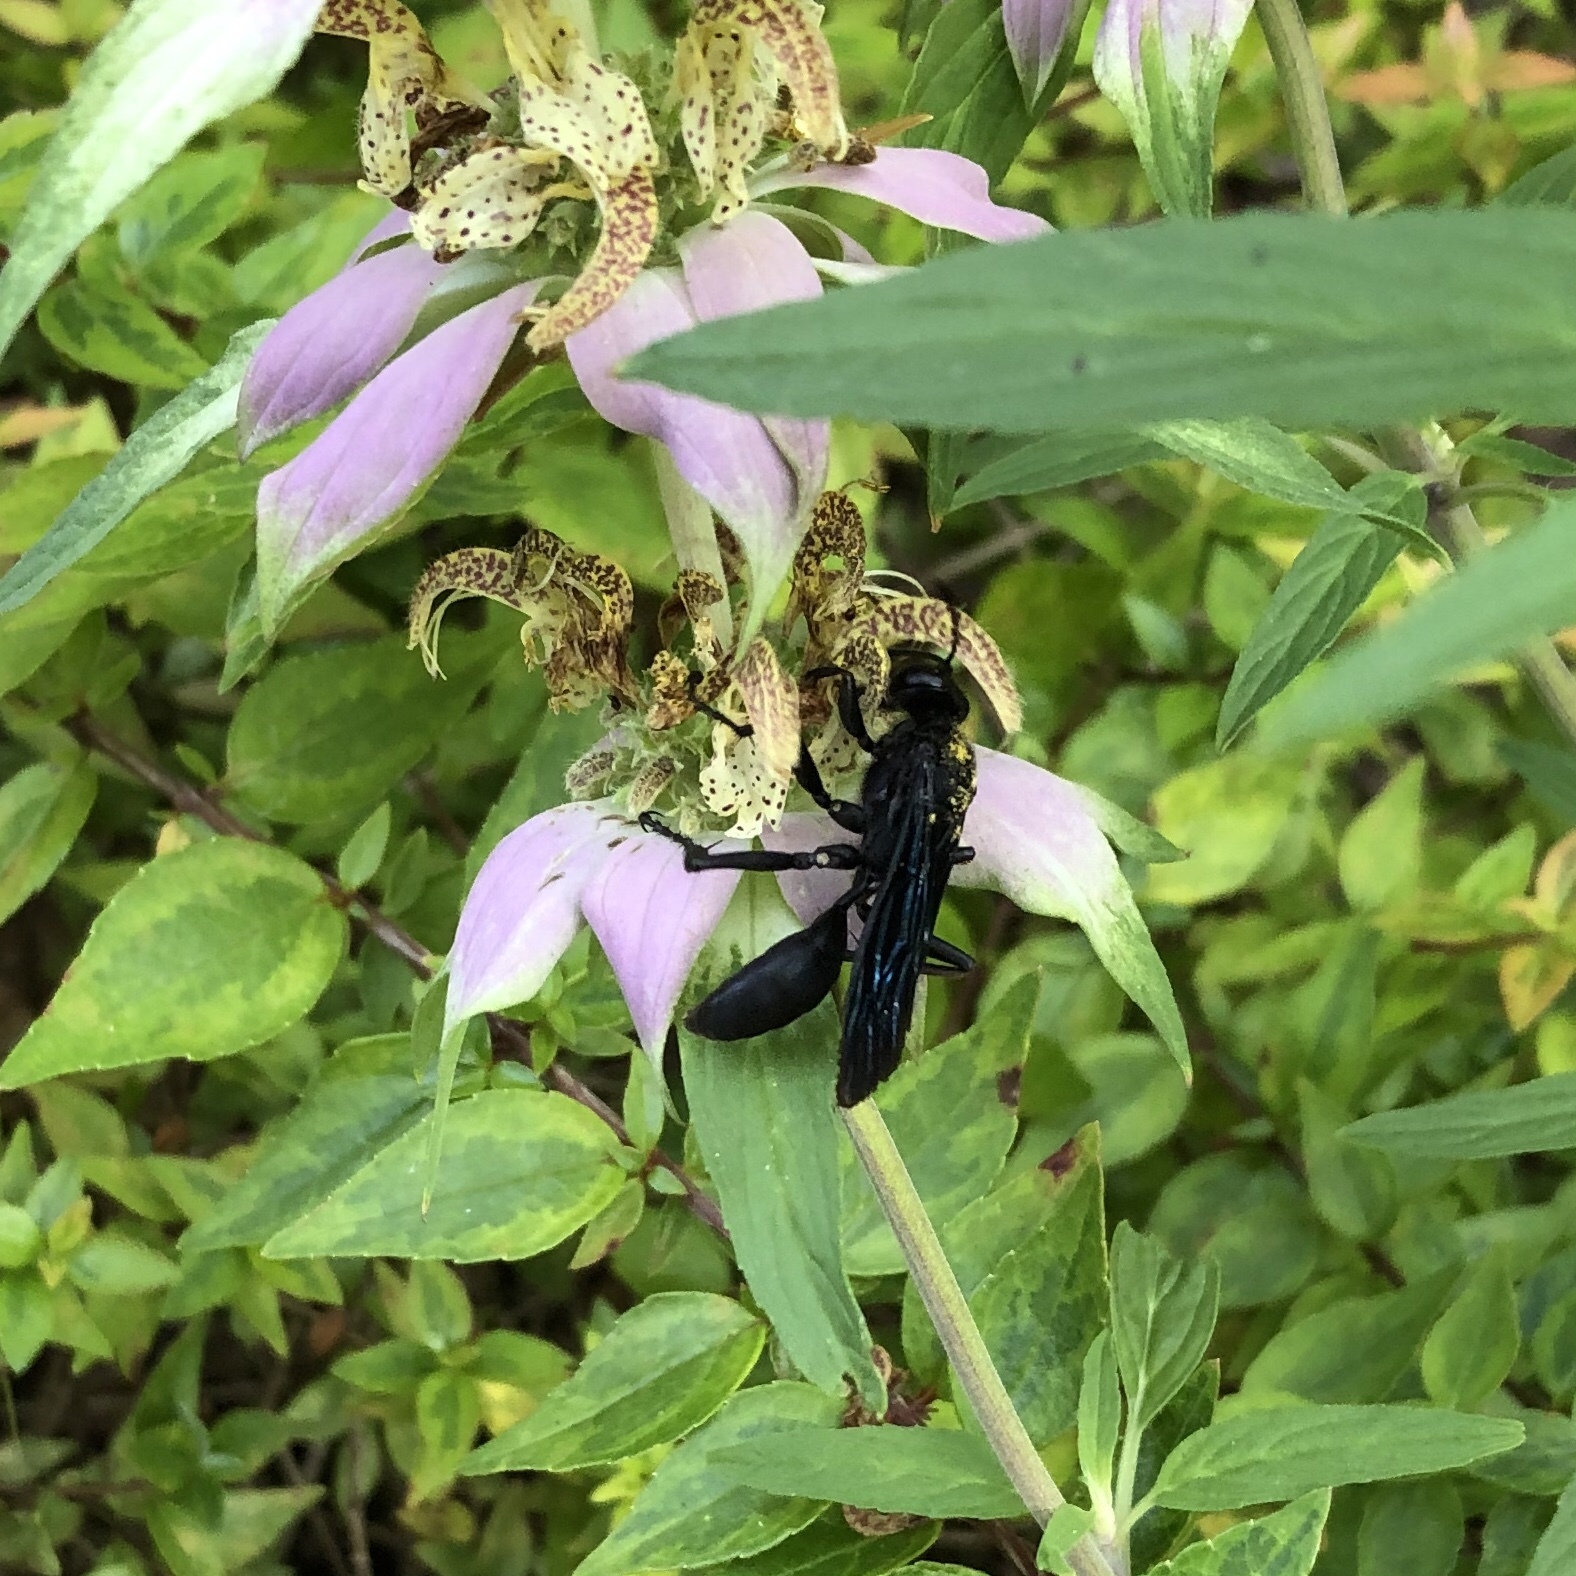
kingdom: Animalia
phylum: Arthropoda
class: Insecta
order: Hymenoptera
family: Sphecidae
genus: Sphex
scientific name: Sphex pensylvanicus
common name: Great black digger wasp
